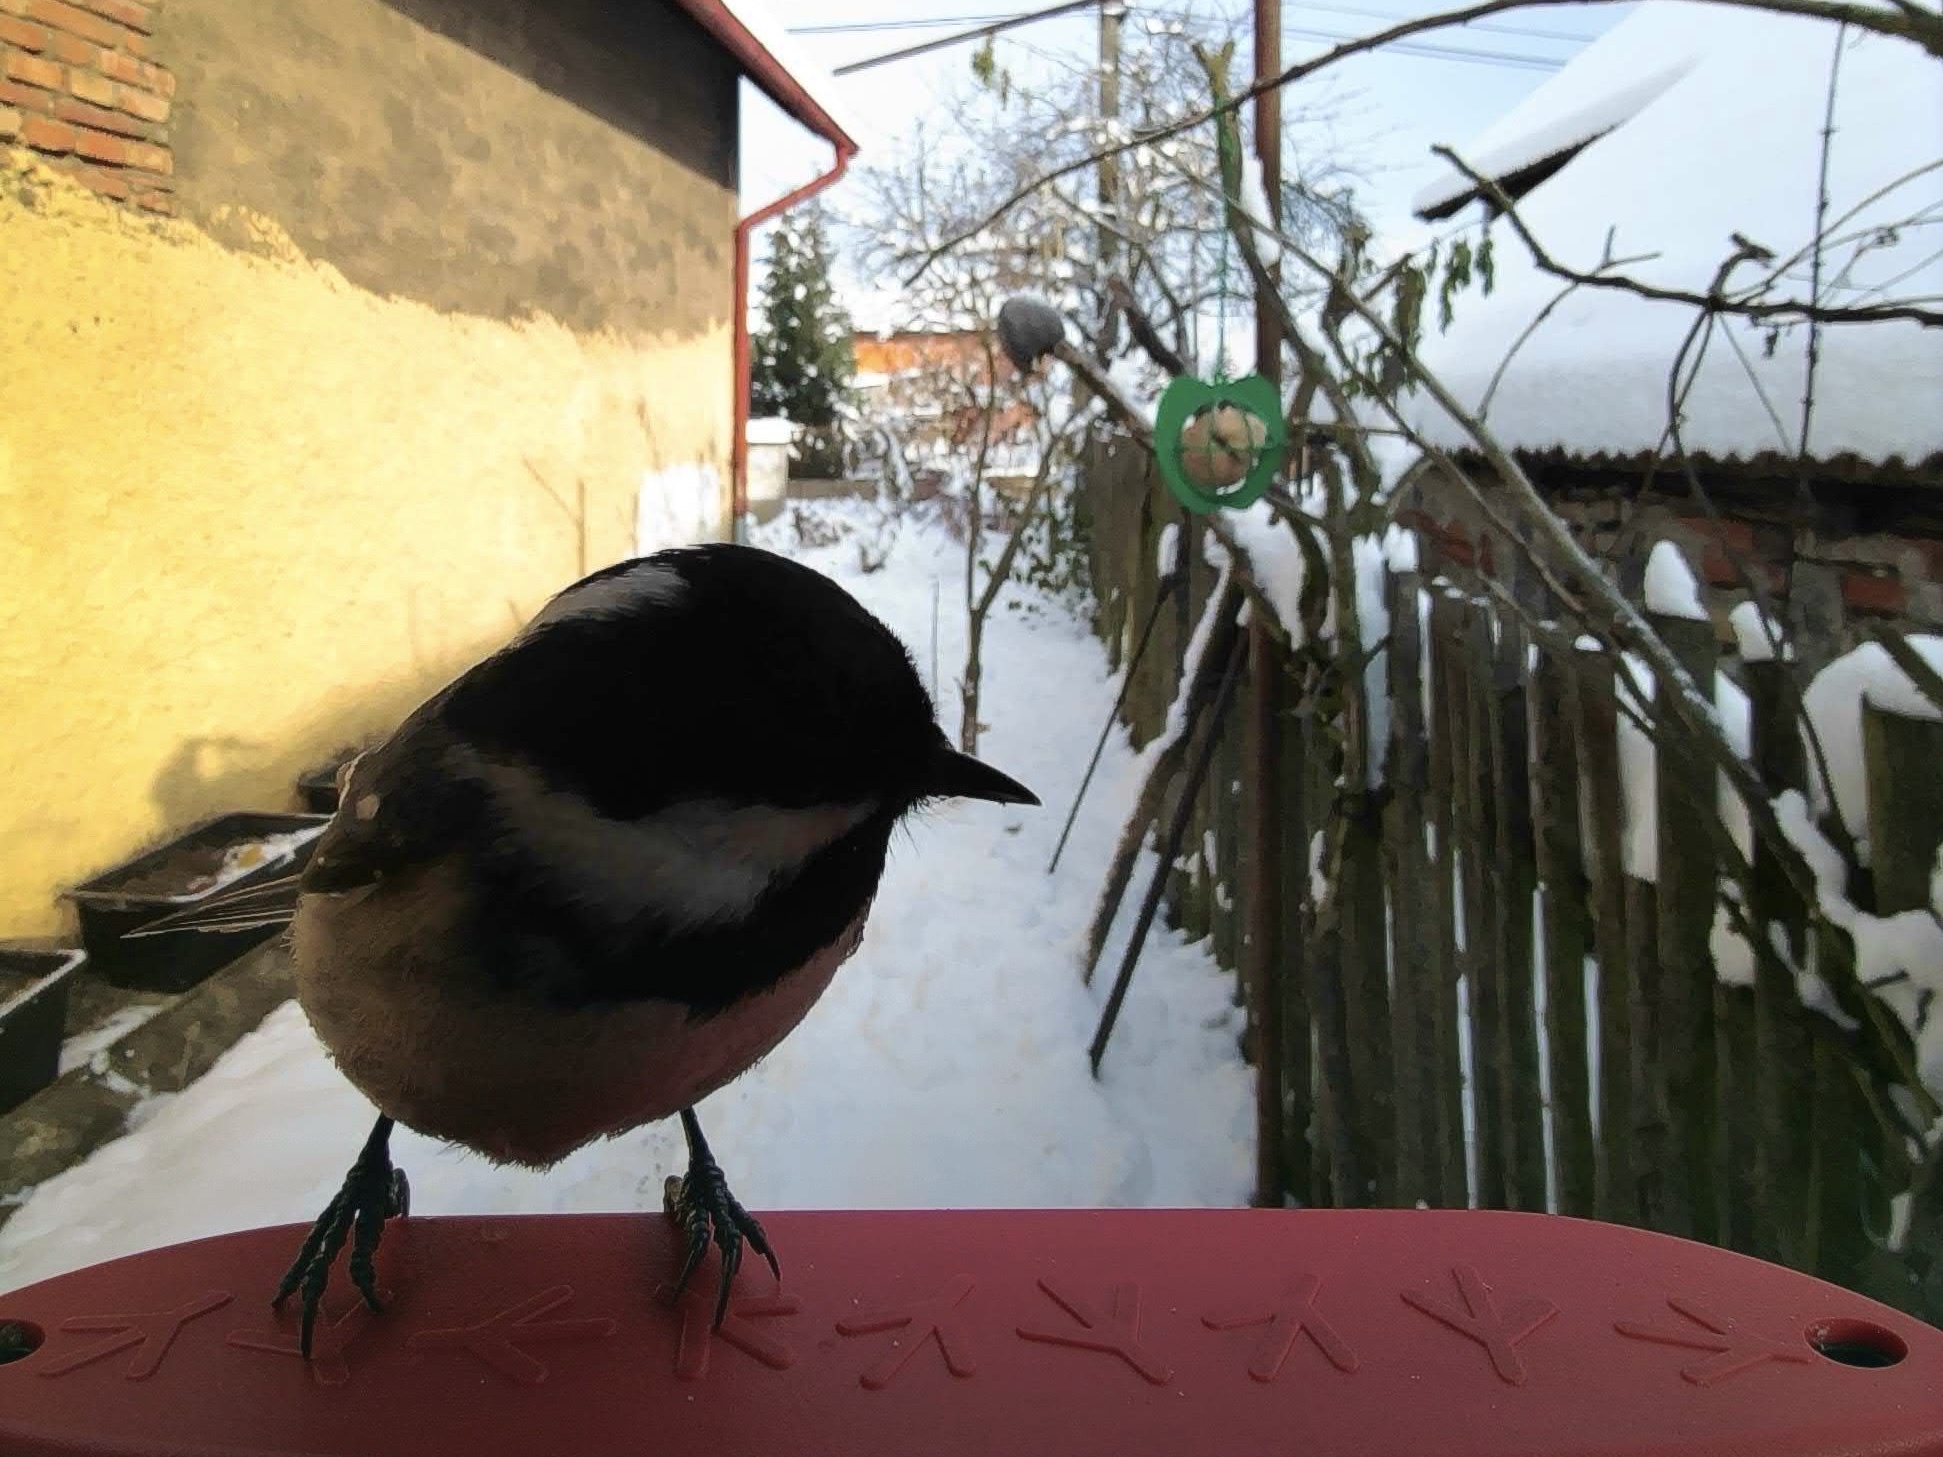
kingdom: Animalia
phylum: Chordata
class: Aves
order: Passeriformes
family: Paridae
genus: Periparus
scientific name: Periparus ater
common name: Coal tit
